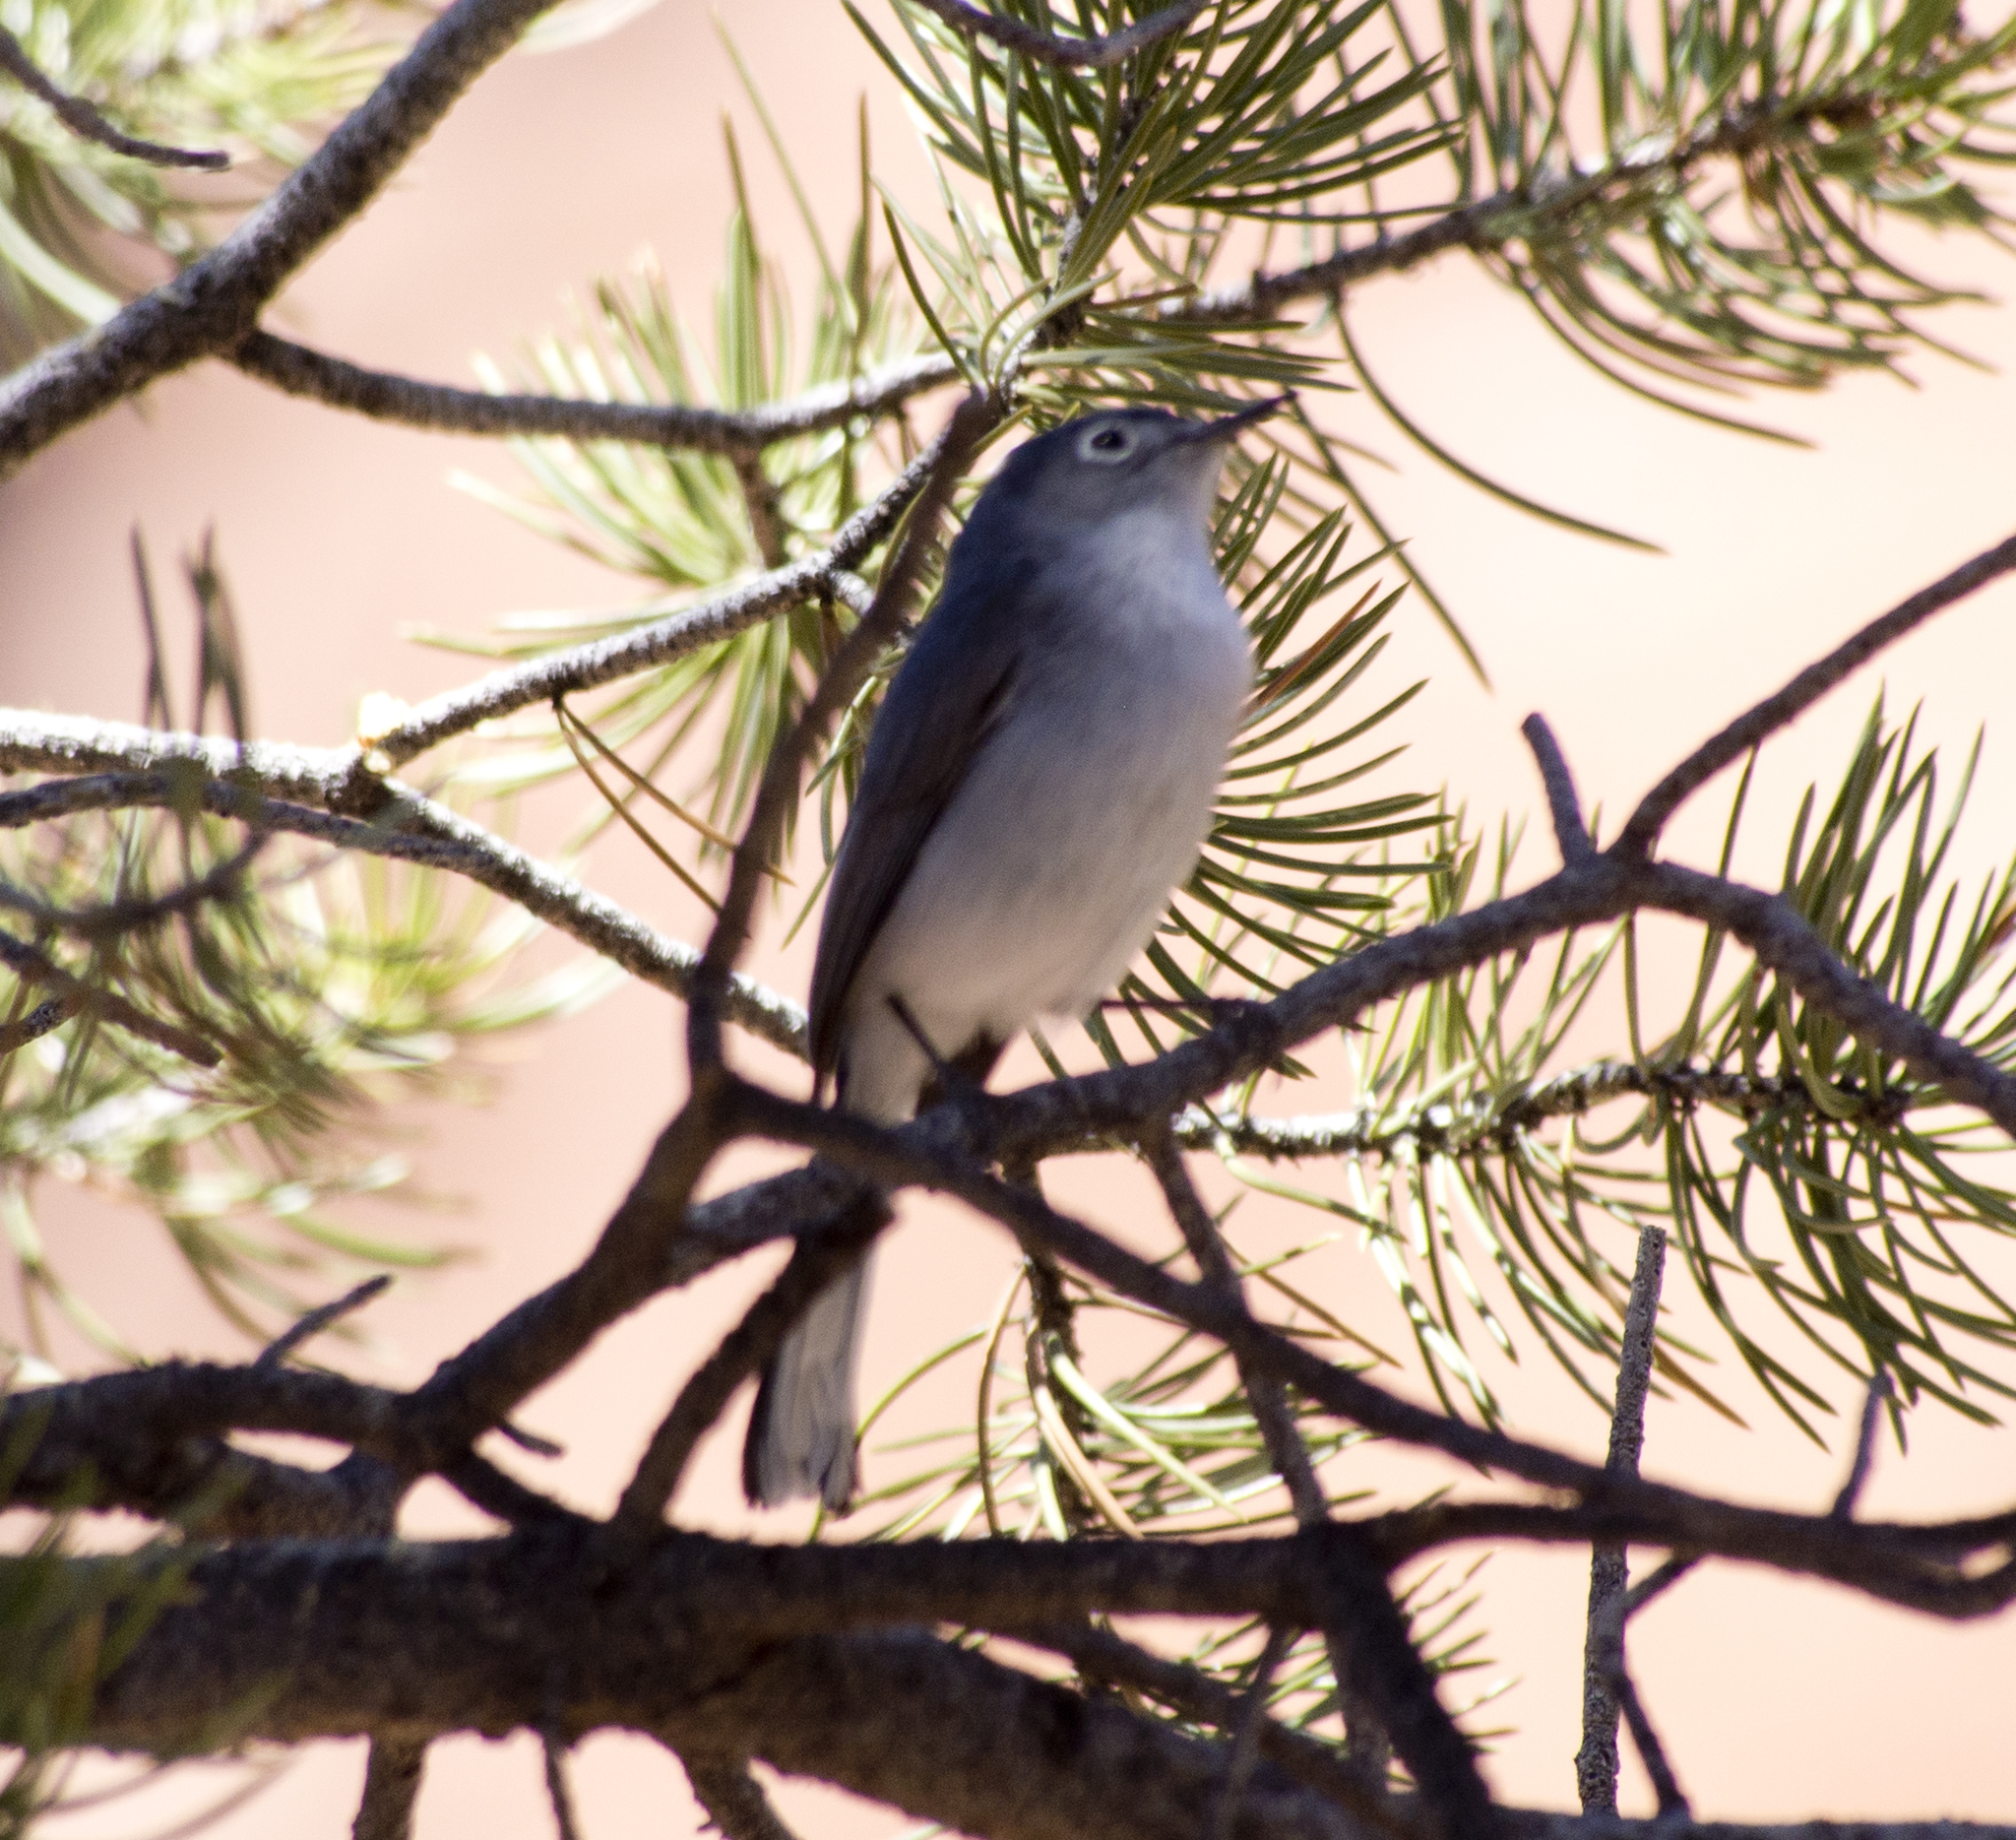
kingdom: Animalia
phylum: Chordata
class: Aves
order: Passeriformes
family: Polioptilidae
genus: Polioptila
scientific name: Polioptila caerulea
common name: Blue-gray gnatcatcher
